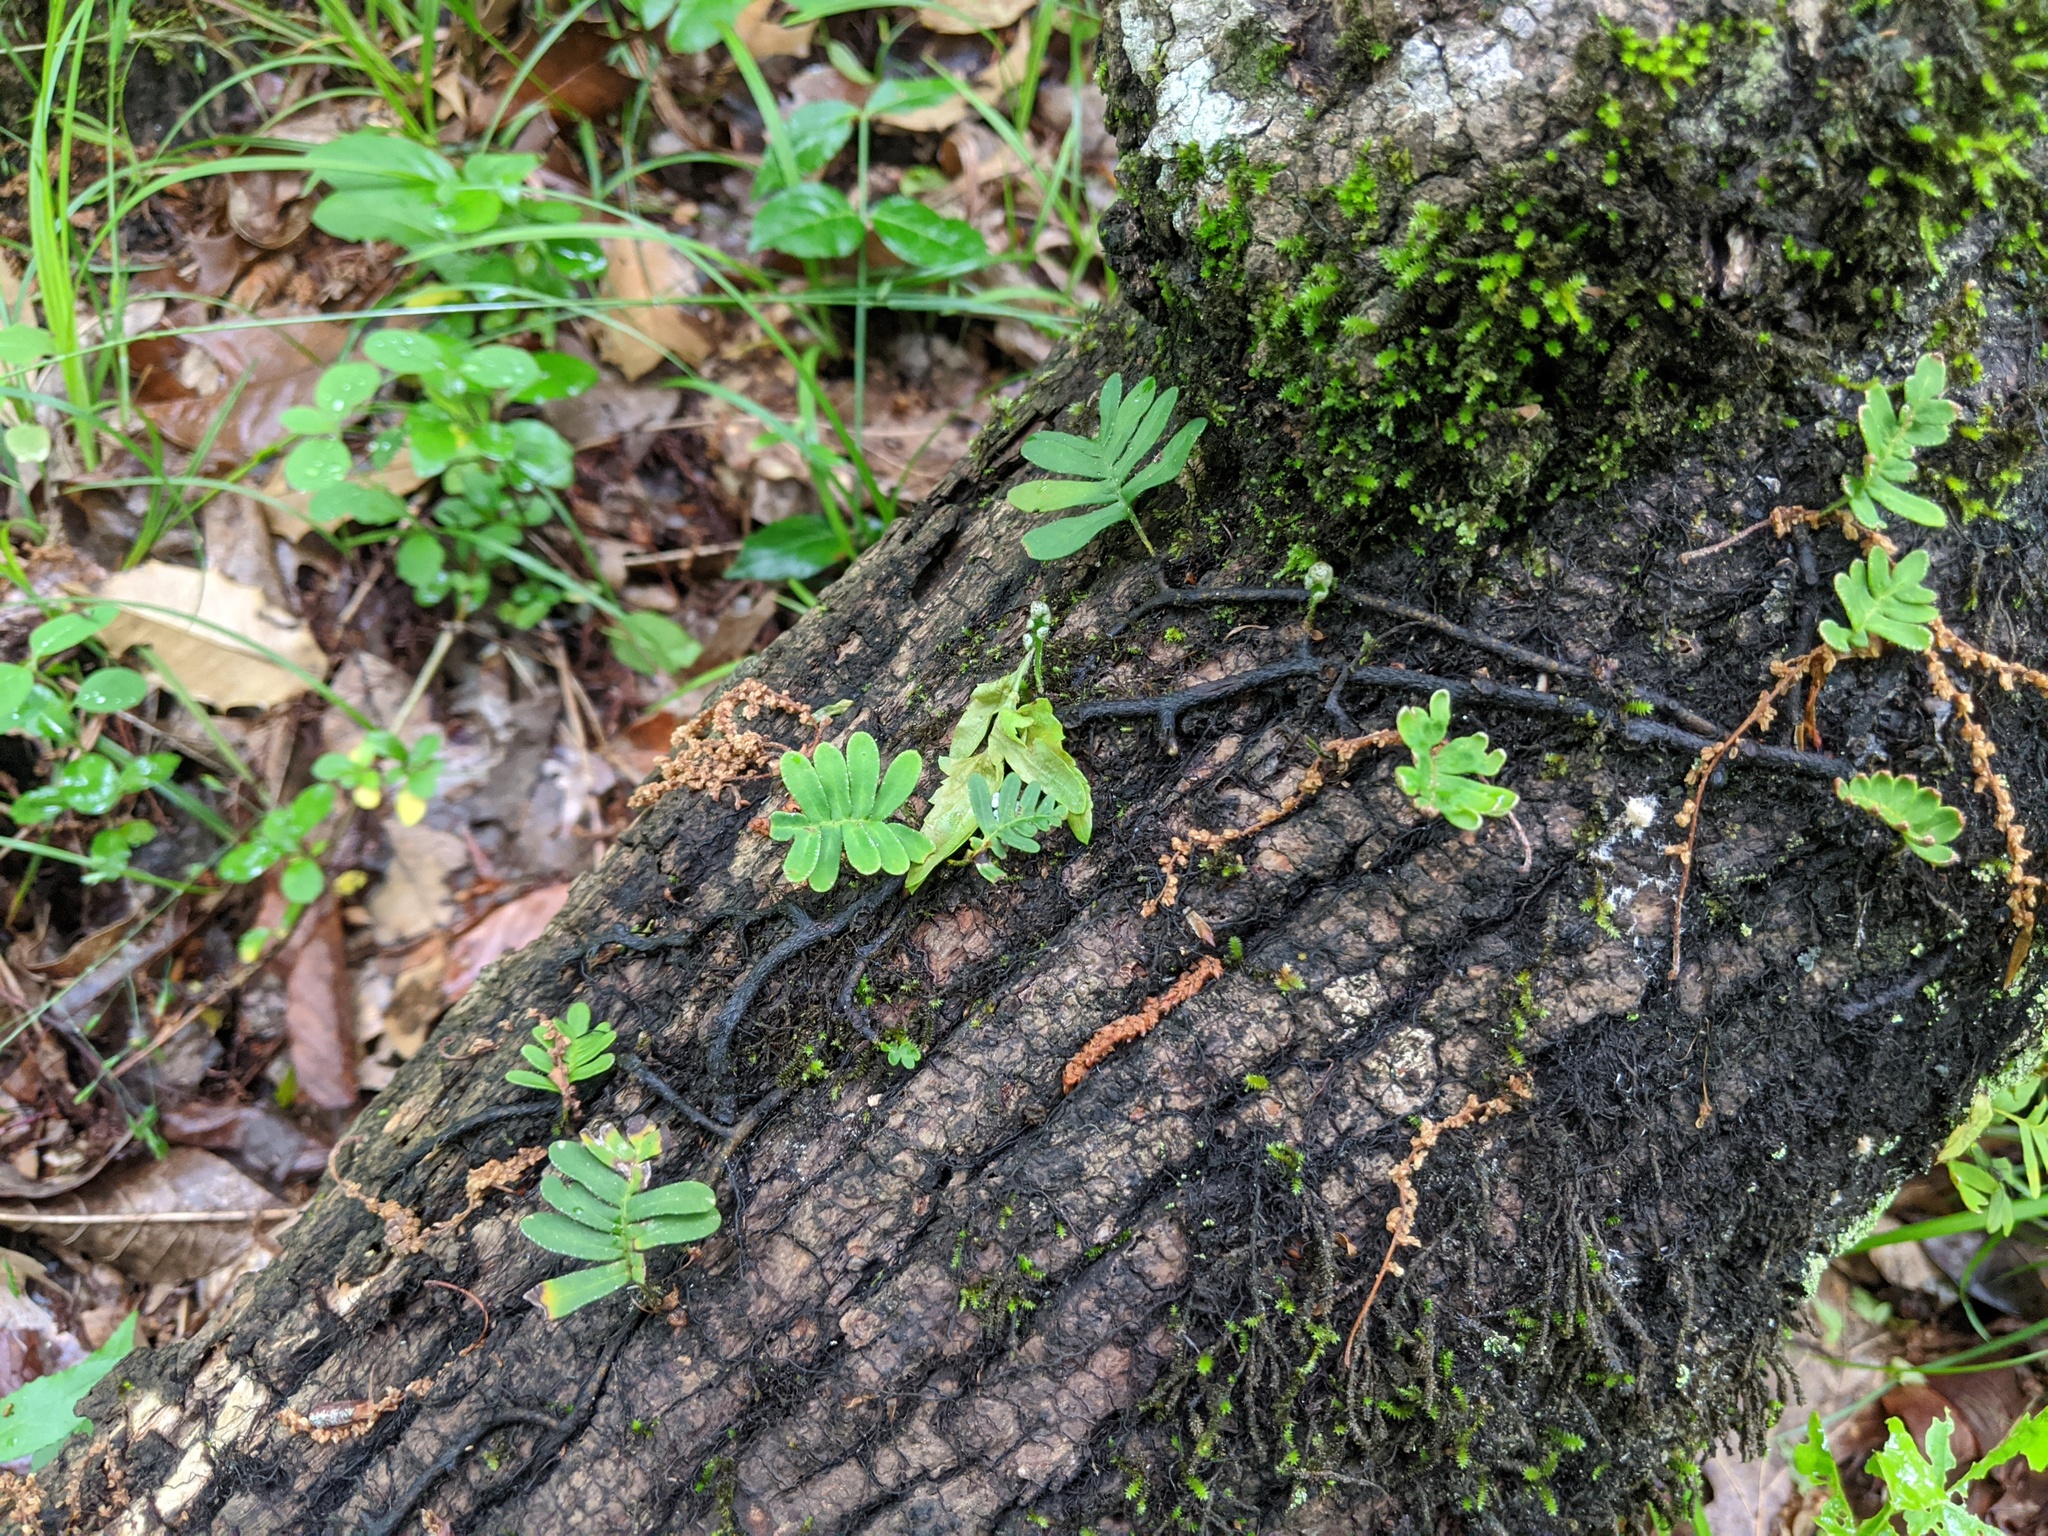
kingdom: Plantae
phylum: Tracheophyta
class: Polypodiopsida
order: Polypodiales
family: Polypodiaceae
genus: Pleopeltis
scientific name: Pleopeltis michauxiana
